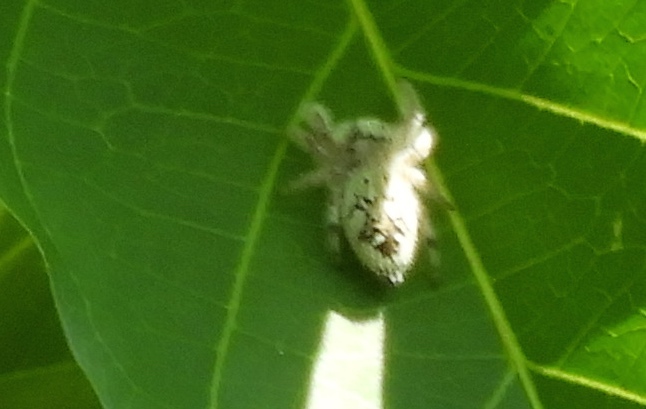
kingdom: Animalia
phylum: Arthropoda
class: Arachnida
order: Araneae
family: Salticidae
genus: Paraphidippus
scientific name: Paraphidippus fartilis
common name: Jumping spiders
